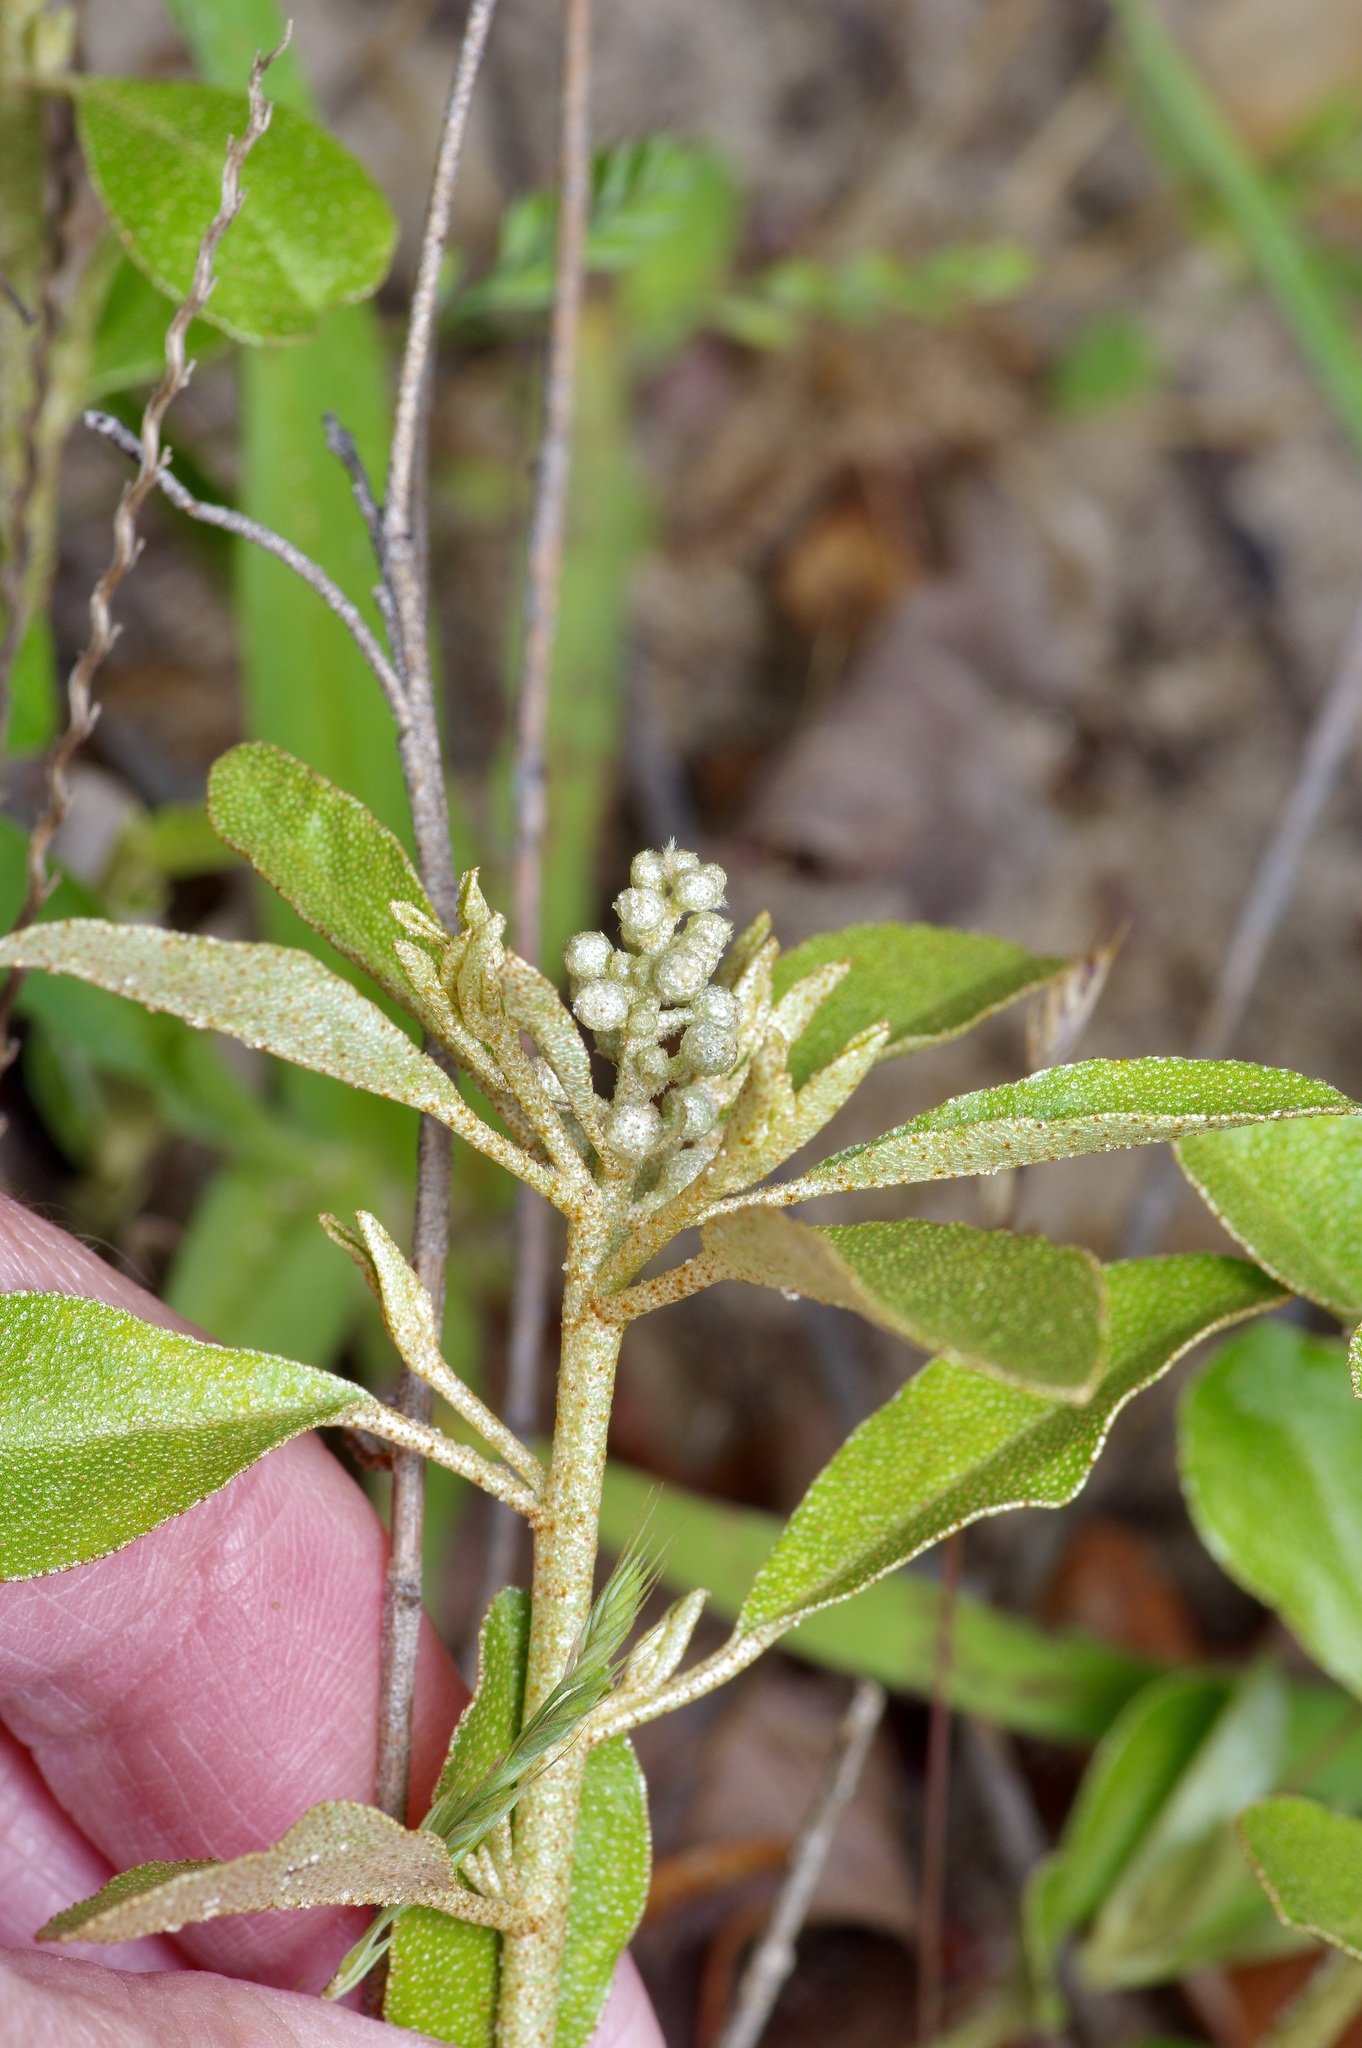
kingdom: Plantae
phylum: Tracheophyta
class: Magnoliopsida
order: Malpighiales
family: Euphorbiaceae
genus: Croton
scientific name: Croton argyranthemus
